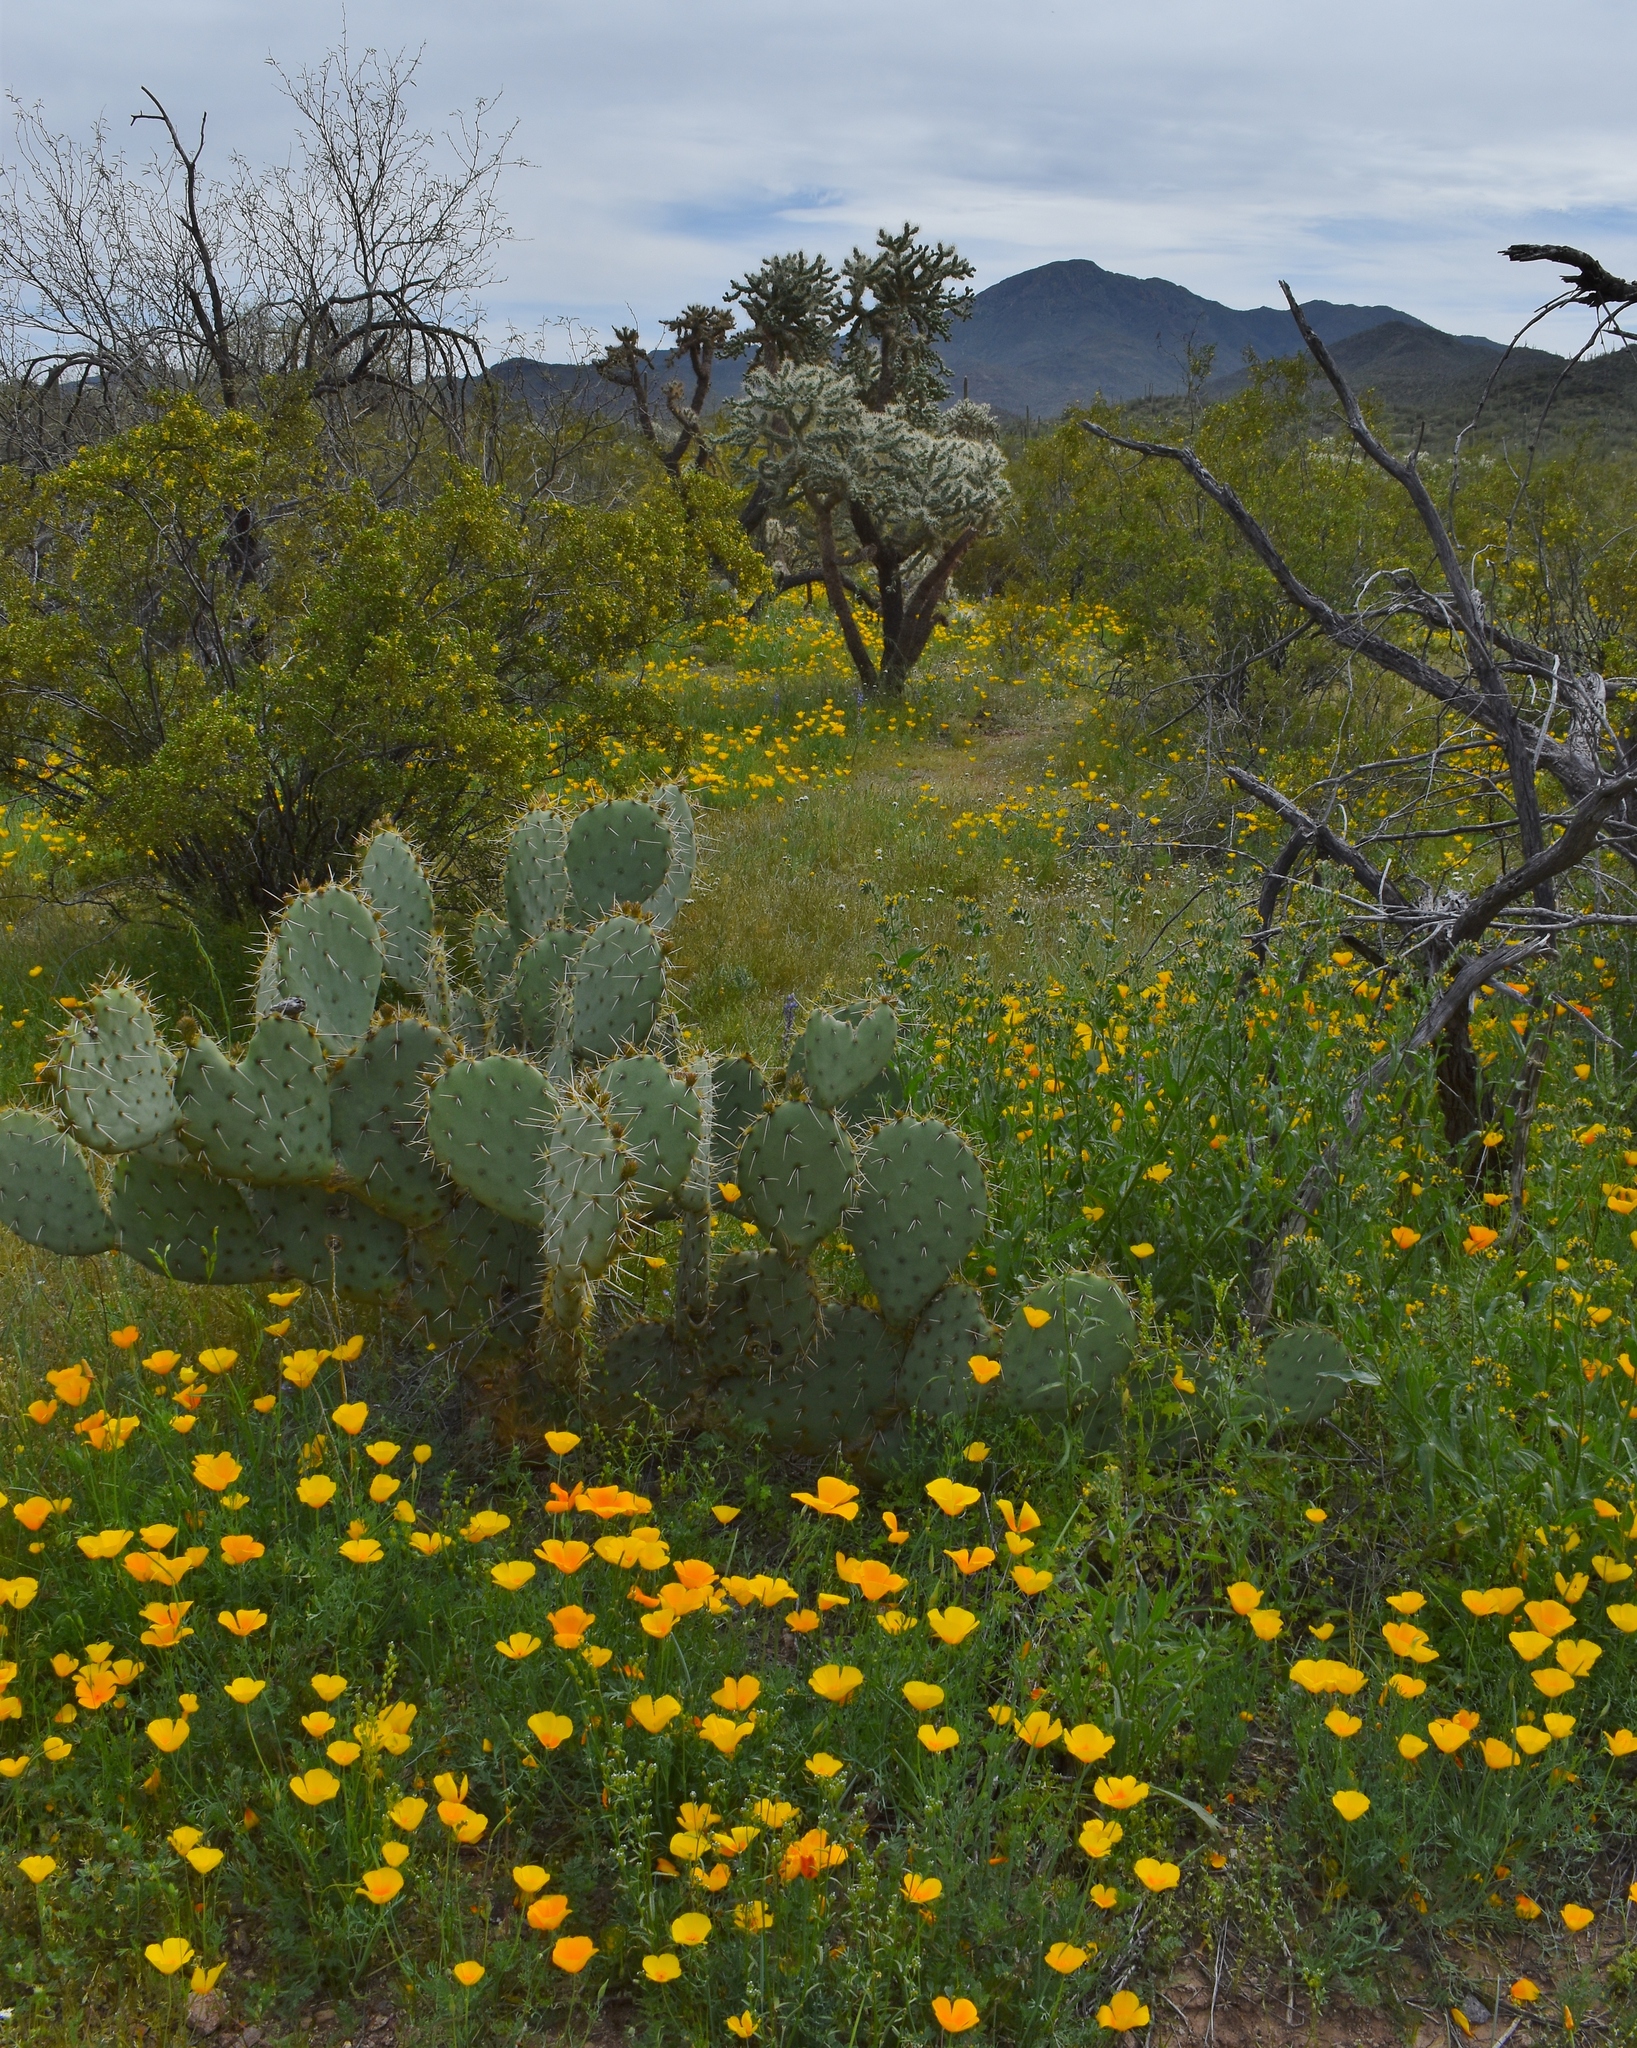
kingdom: Plantae
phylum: Tracheophyta
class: Magnoliopsida
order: Ranunculales
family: Papaveraceae
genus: Eschscholzia
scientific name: Eschscholzia californica
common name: California poppy
